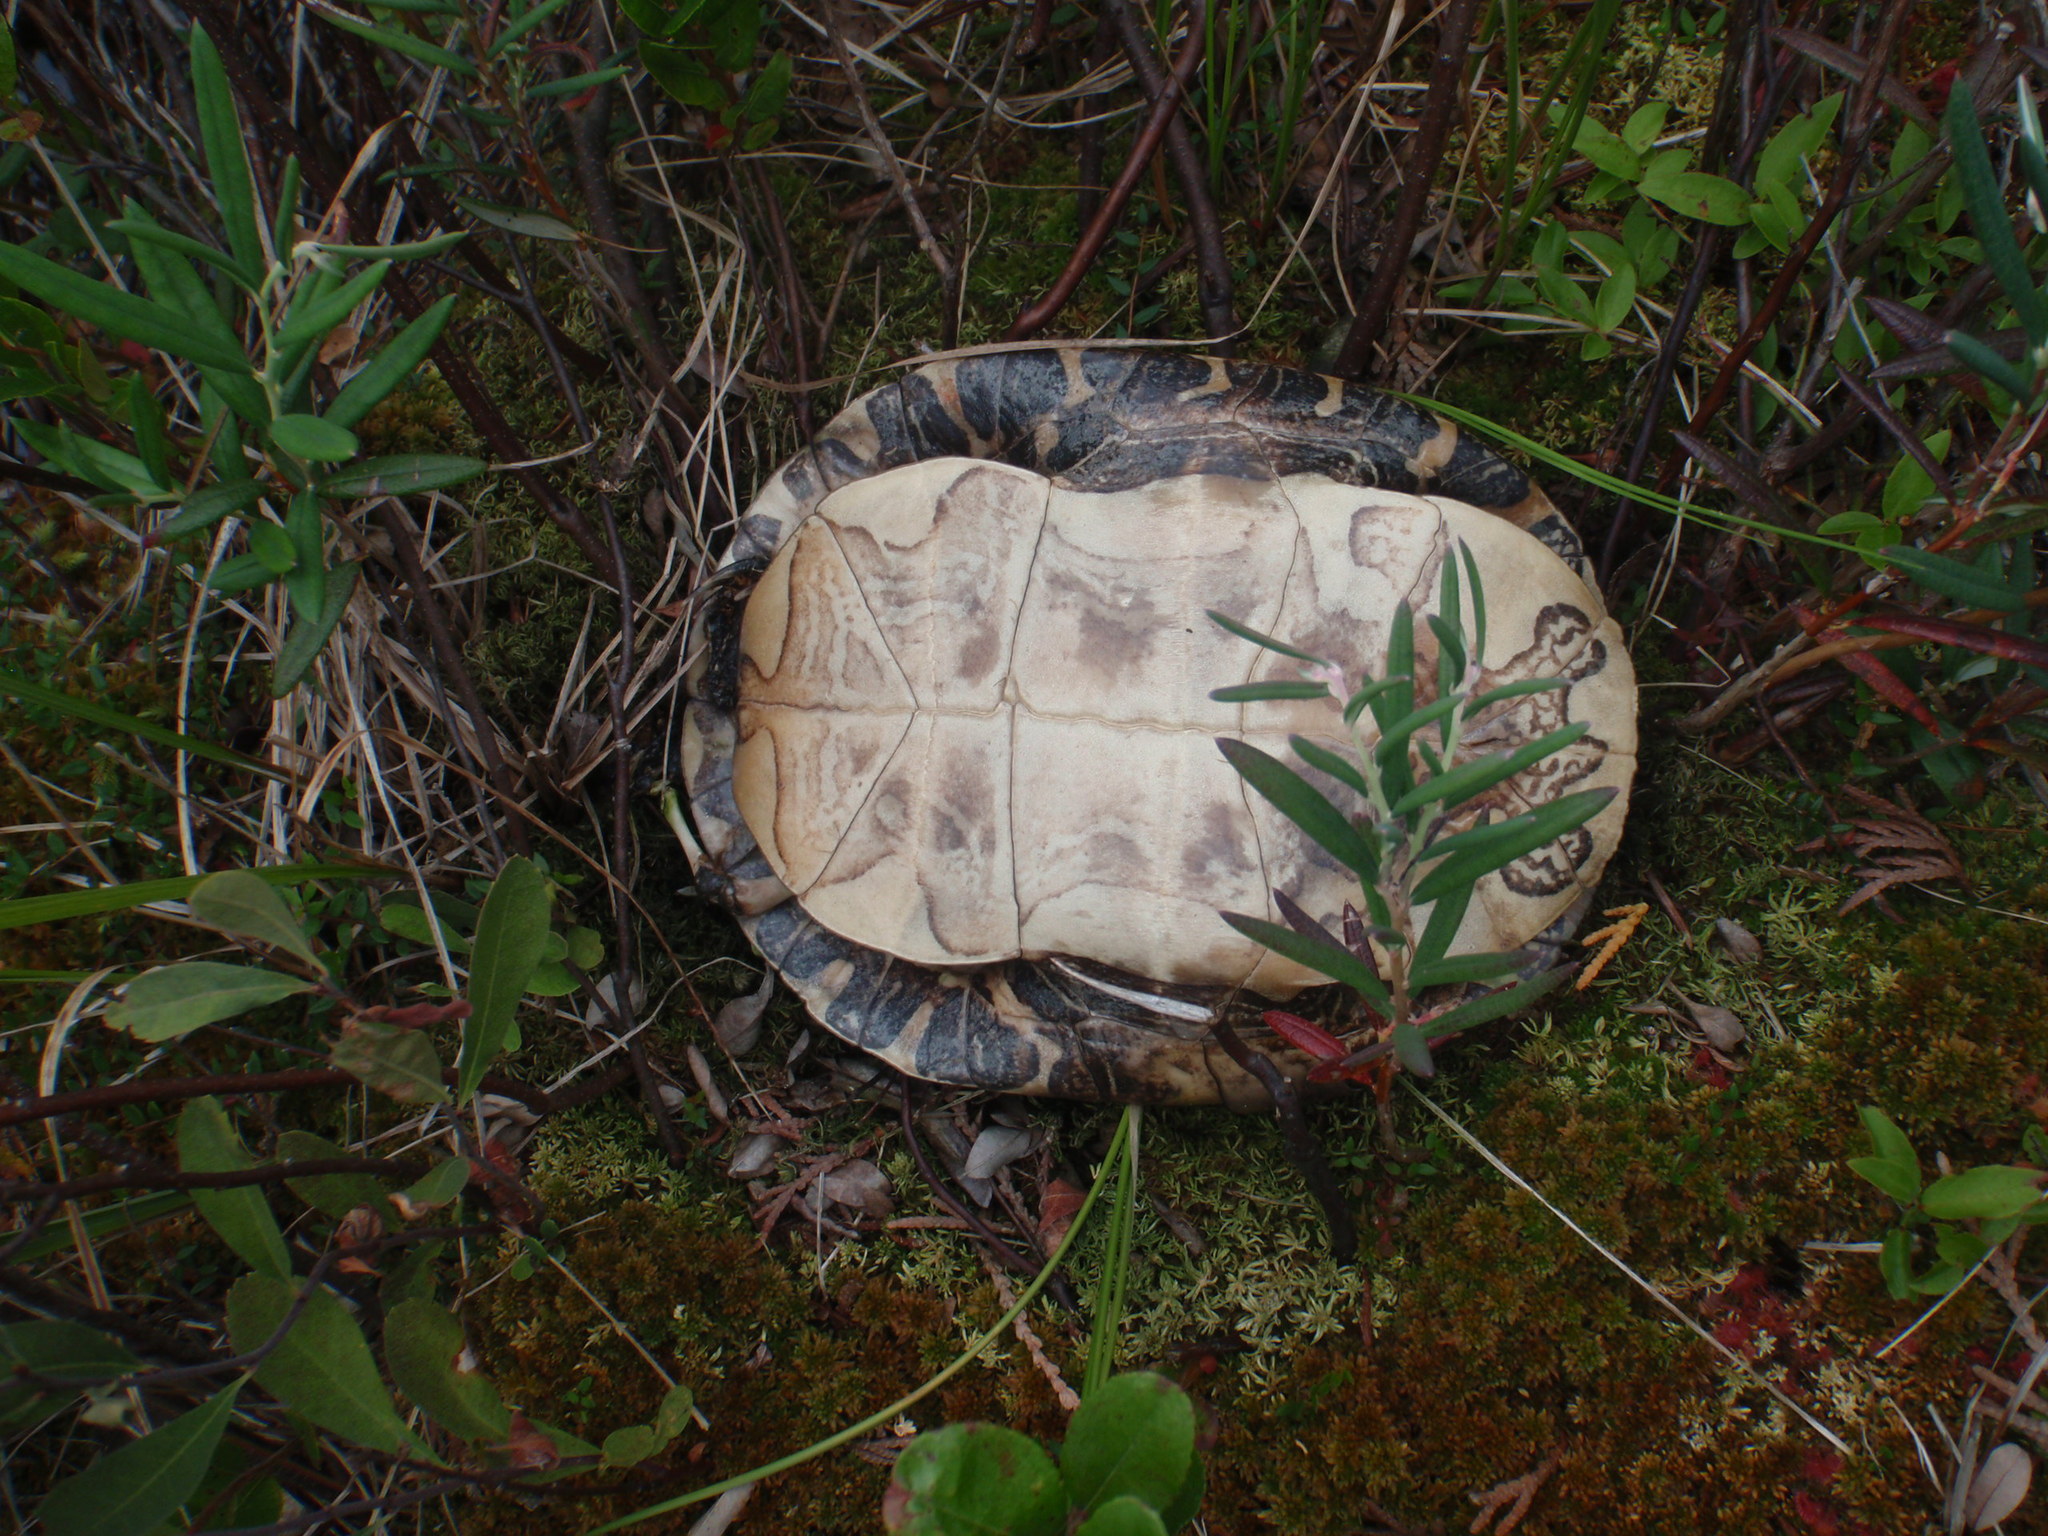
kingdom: Animalia
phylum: Chordata
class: Testudines
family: Emydidae
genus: Chrysemys
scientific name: Chrysemys picta
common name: Painted turtle
